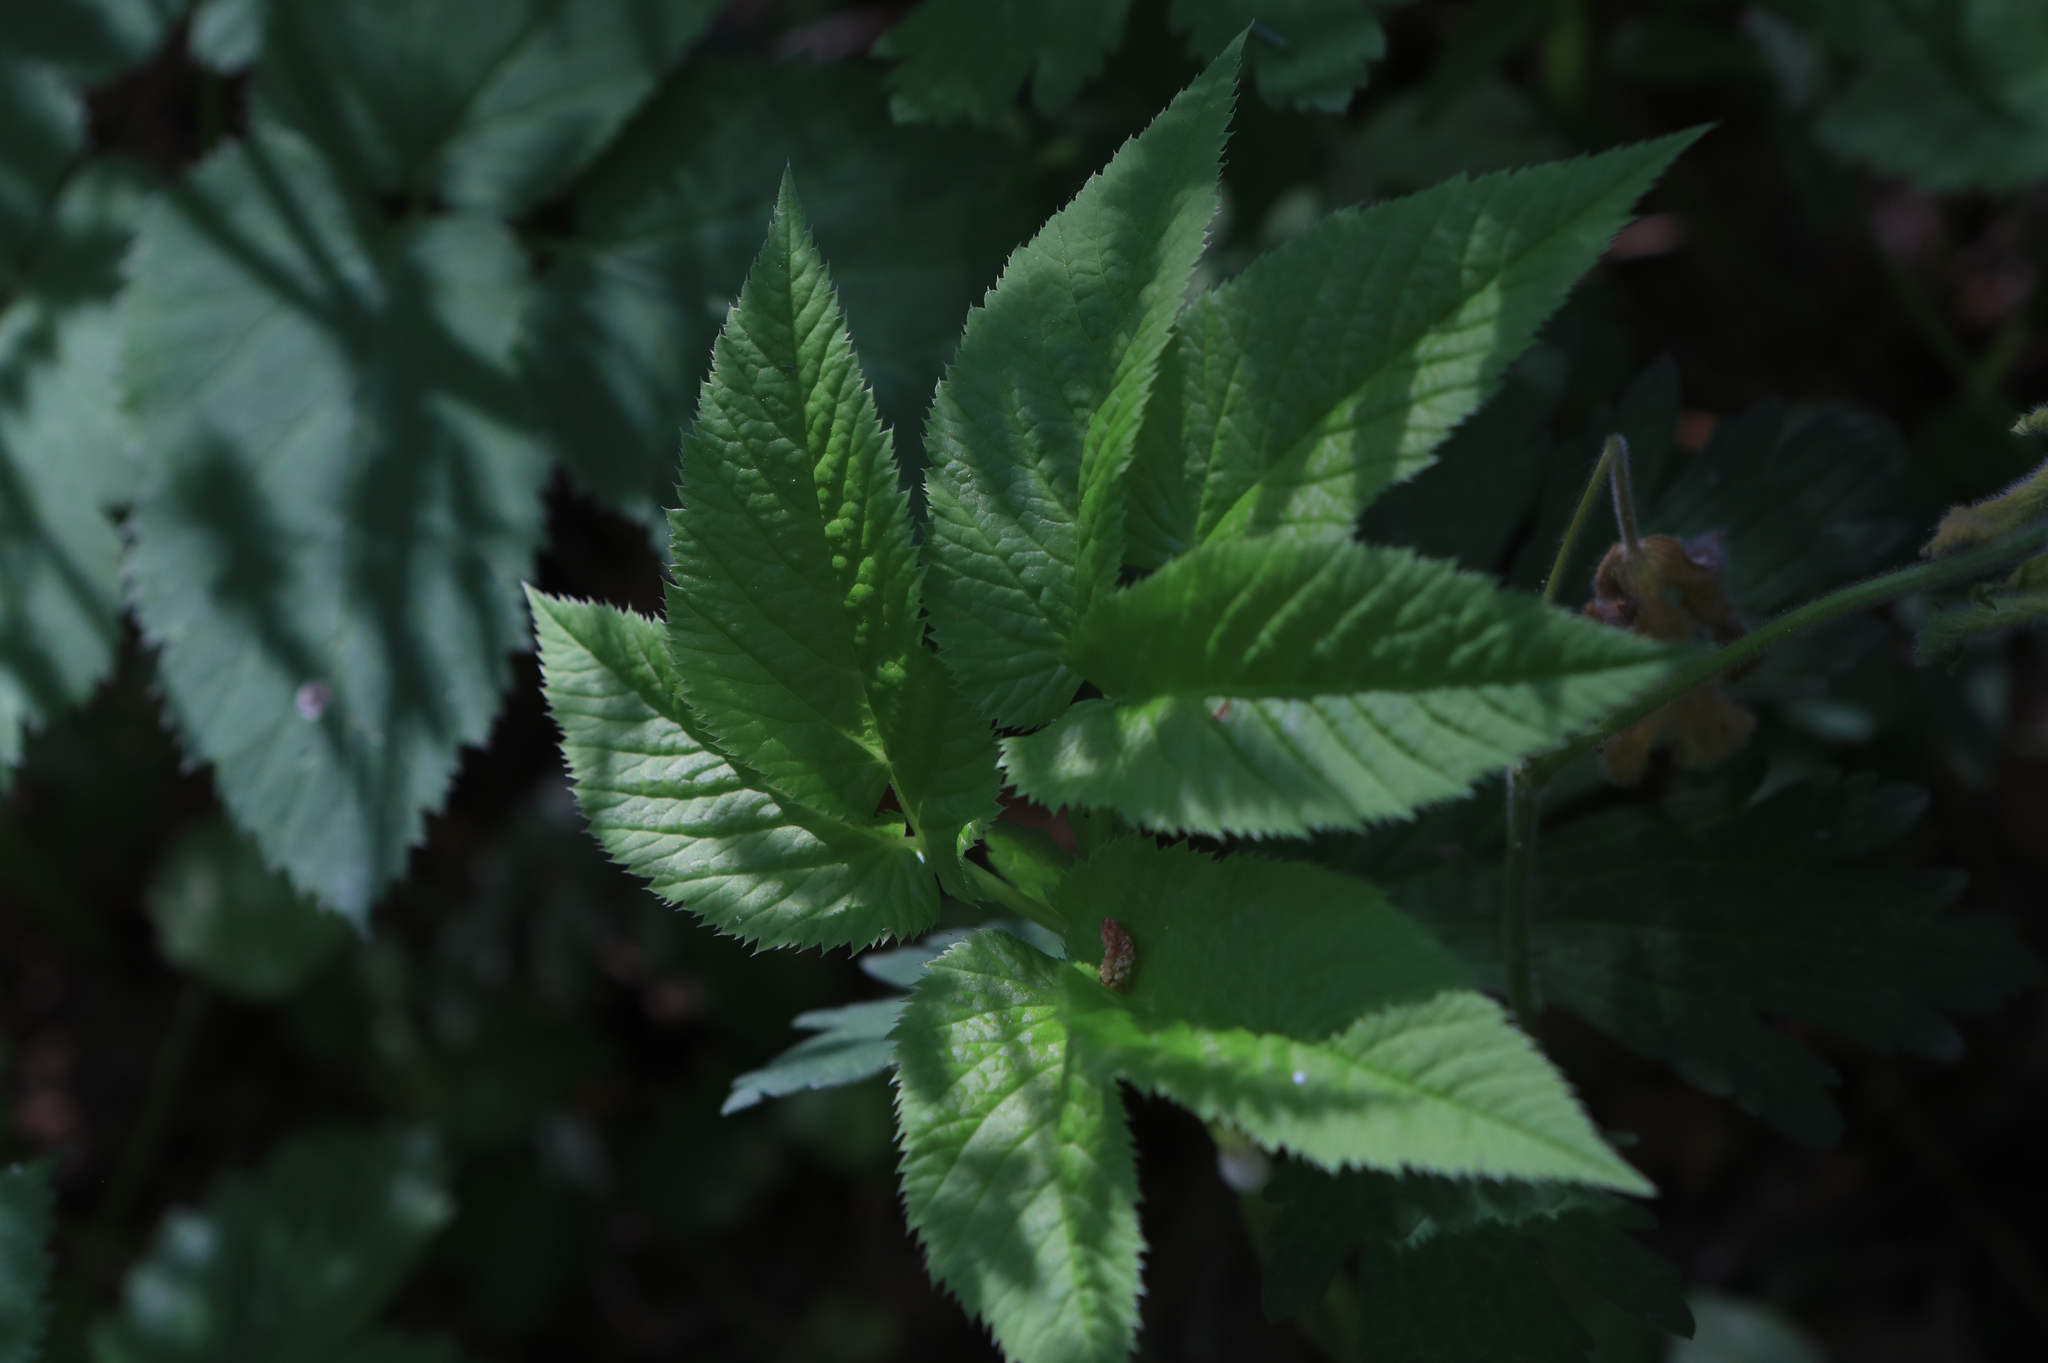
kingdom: Plantae
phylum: Tracheophyta
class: Magnoliopsida
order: Apiales
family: Apiaceae
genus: Aegopodium
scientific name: Aegopodium podagraria
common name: Ground-elder
